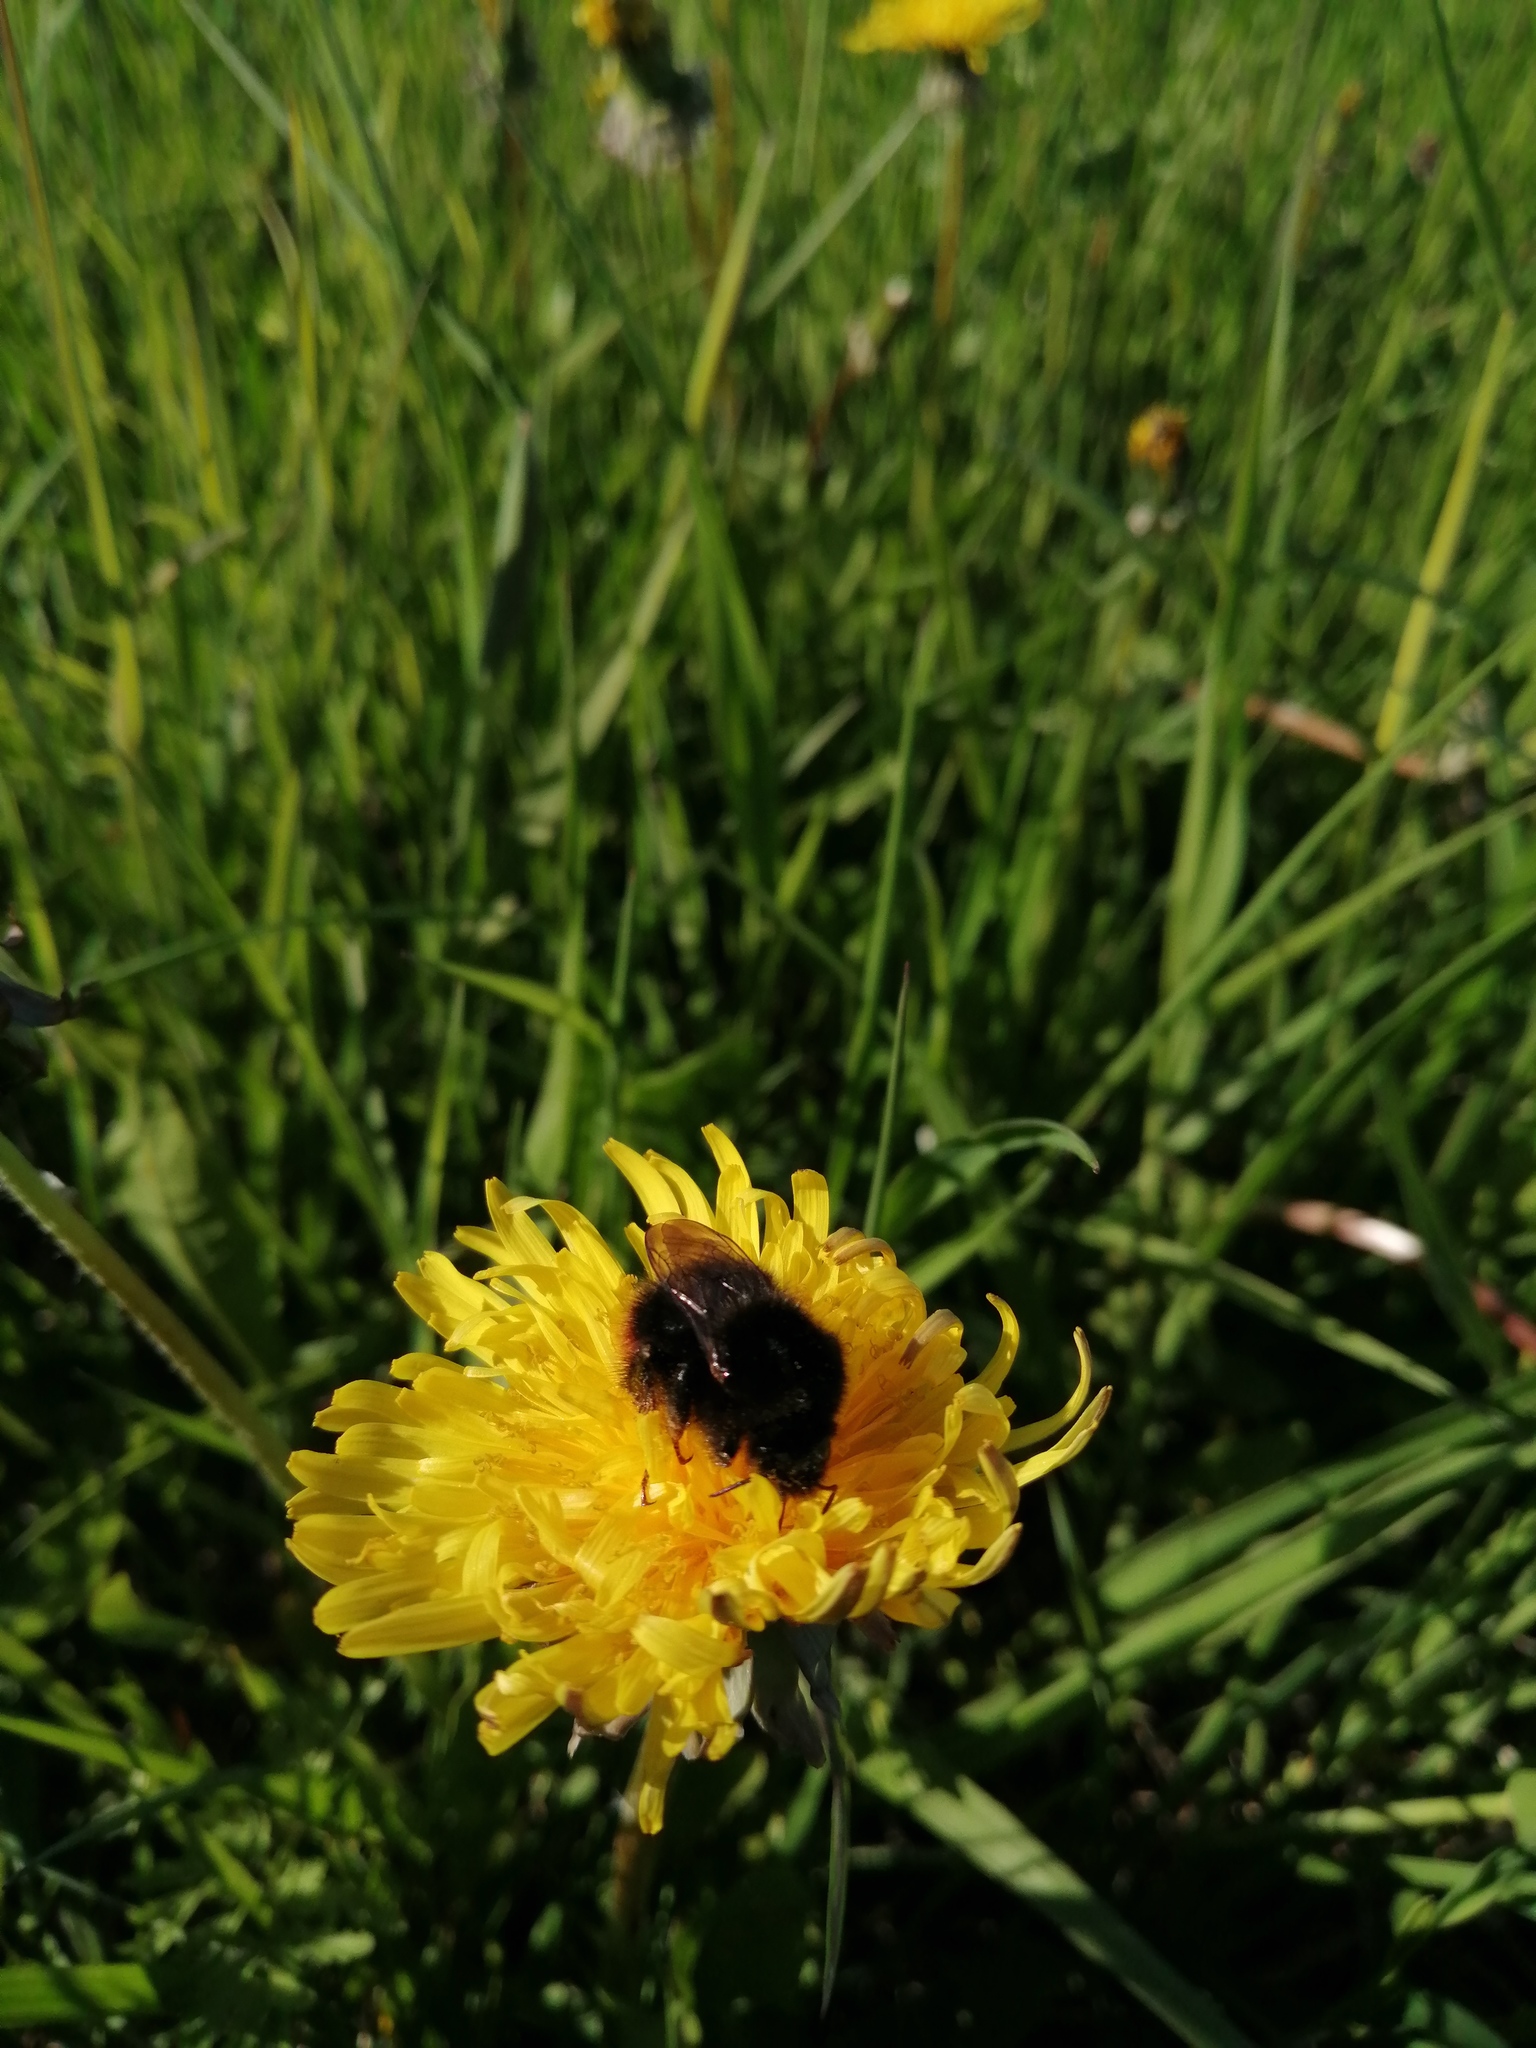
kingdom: Animalia
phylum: Arthropoda
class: Insecta
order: Hymenoptera
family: Apidae
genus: Bombus
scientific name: Bombus
